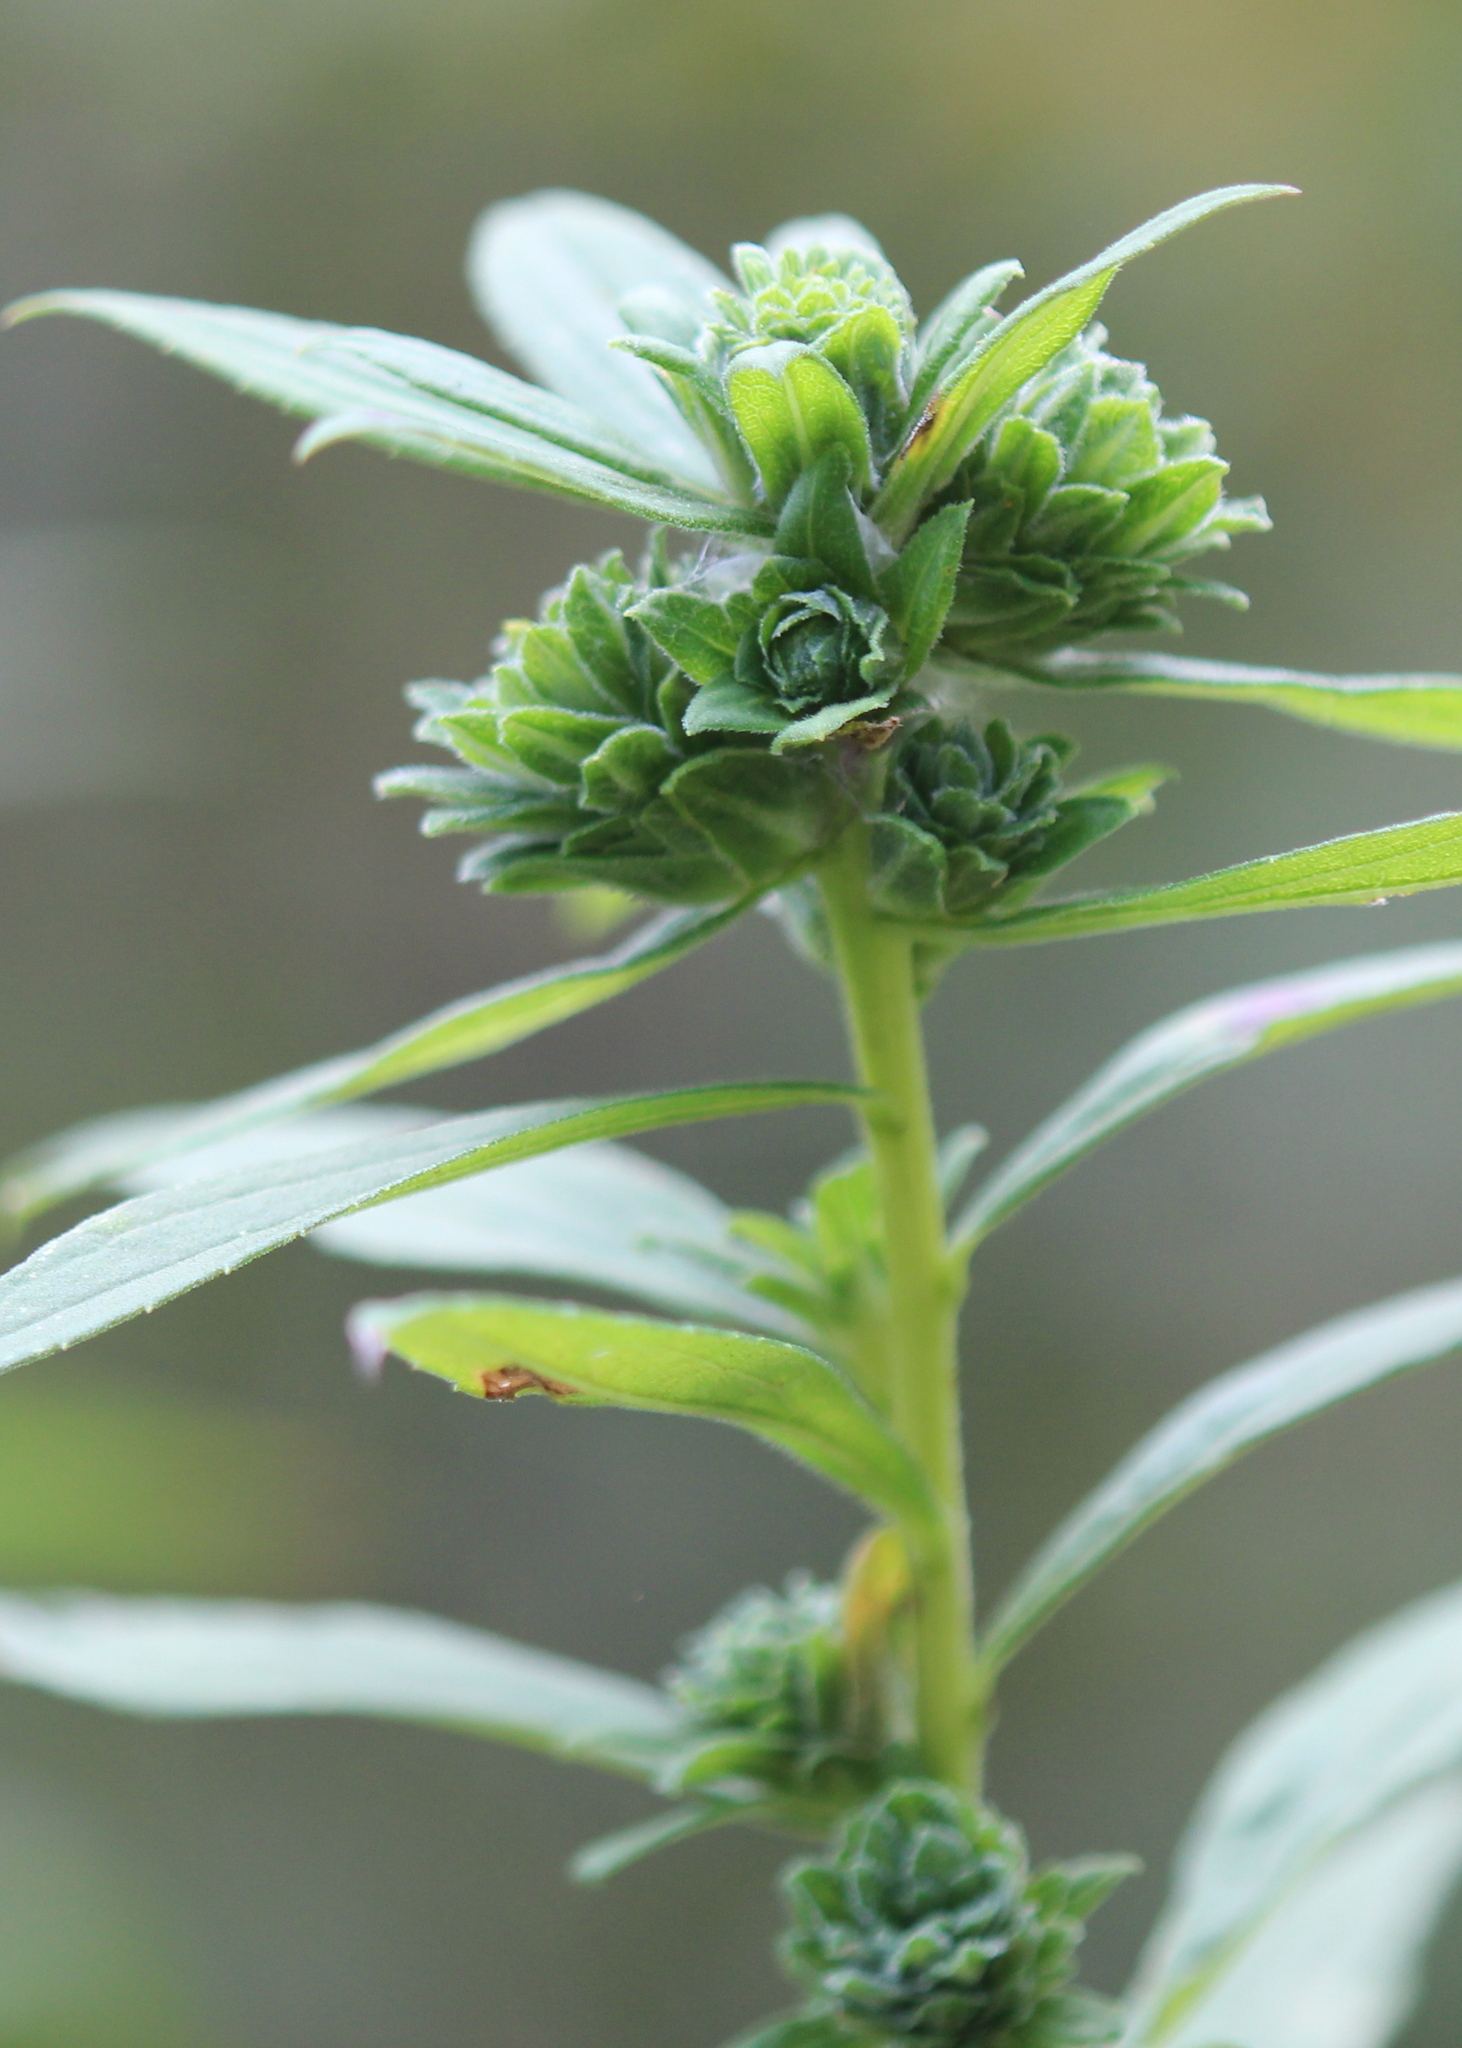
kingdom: Animalia
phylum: Arthropoda
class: Insecta
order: Diptera
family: Tephritidae
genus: Procecidochares
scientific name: Procecidochares atra
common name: Goldenrod brussels sprout gall fly
